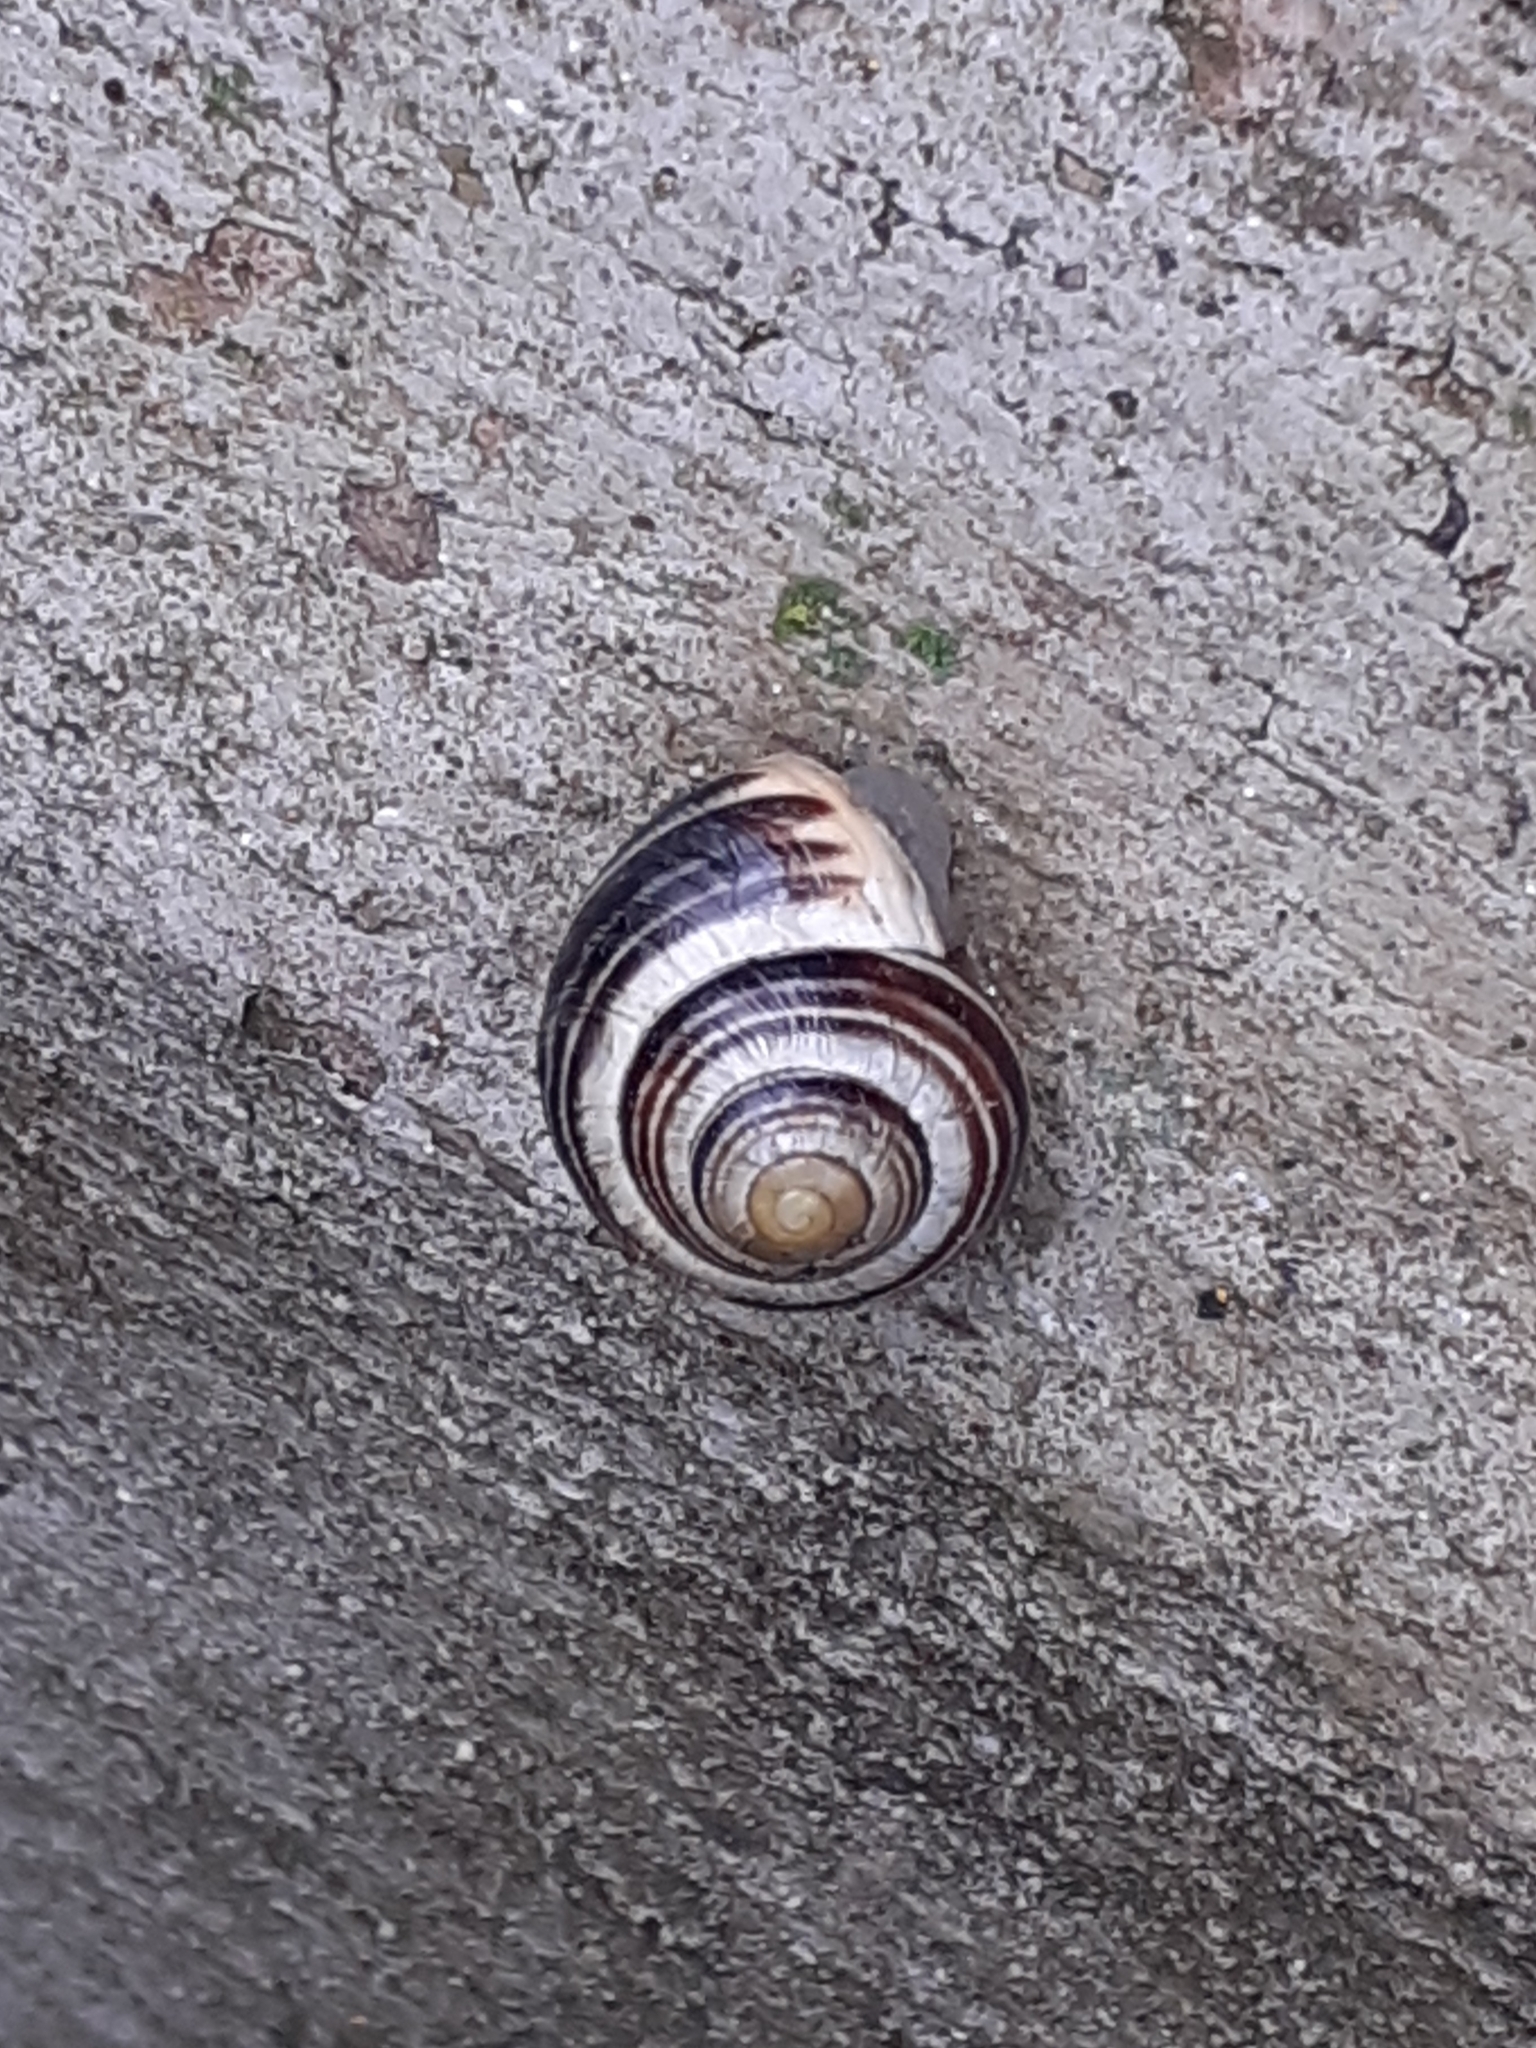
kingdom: Animalia
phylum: Mollusca
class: Gastropoda
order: Stylommatophora
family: Helicidae
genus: Cepaea
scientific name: Cepaea hortensis
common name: White-lip gardensnail
